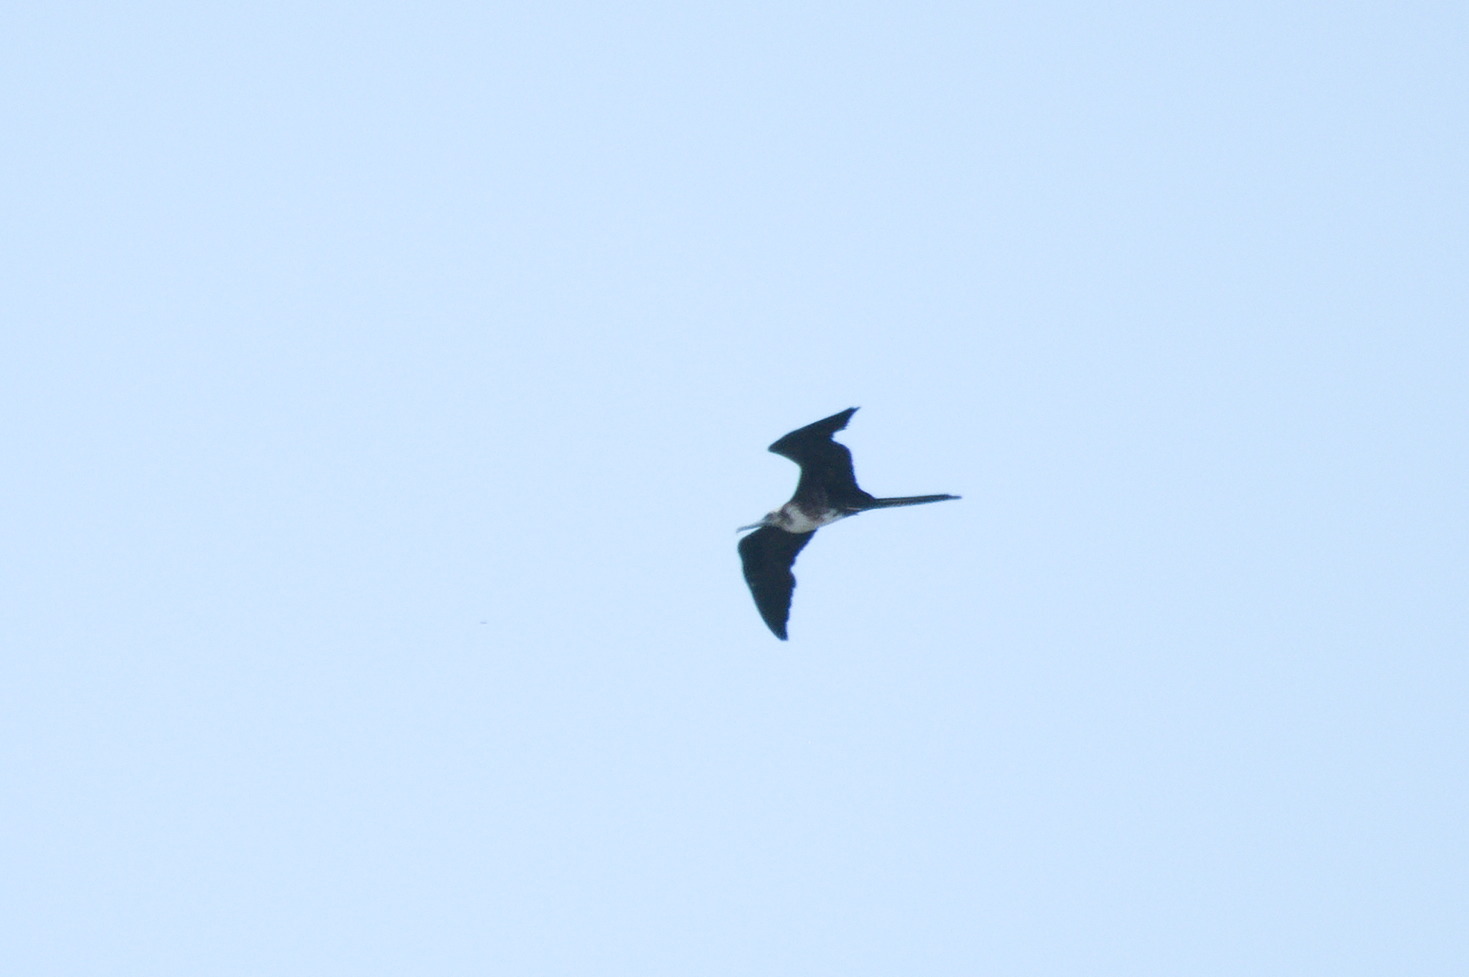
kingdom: Animalia
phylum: Chordata
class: Aves
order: Suliformes
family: Fregatidae
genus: Fregata
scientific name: Fregata magnificens
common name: Magnificent frigatebird
